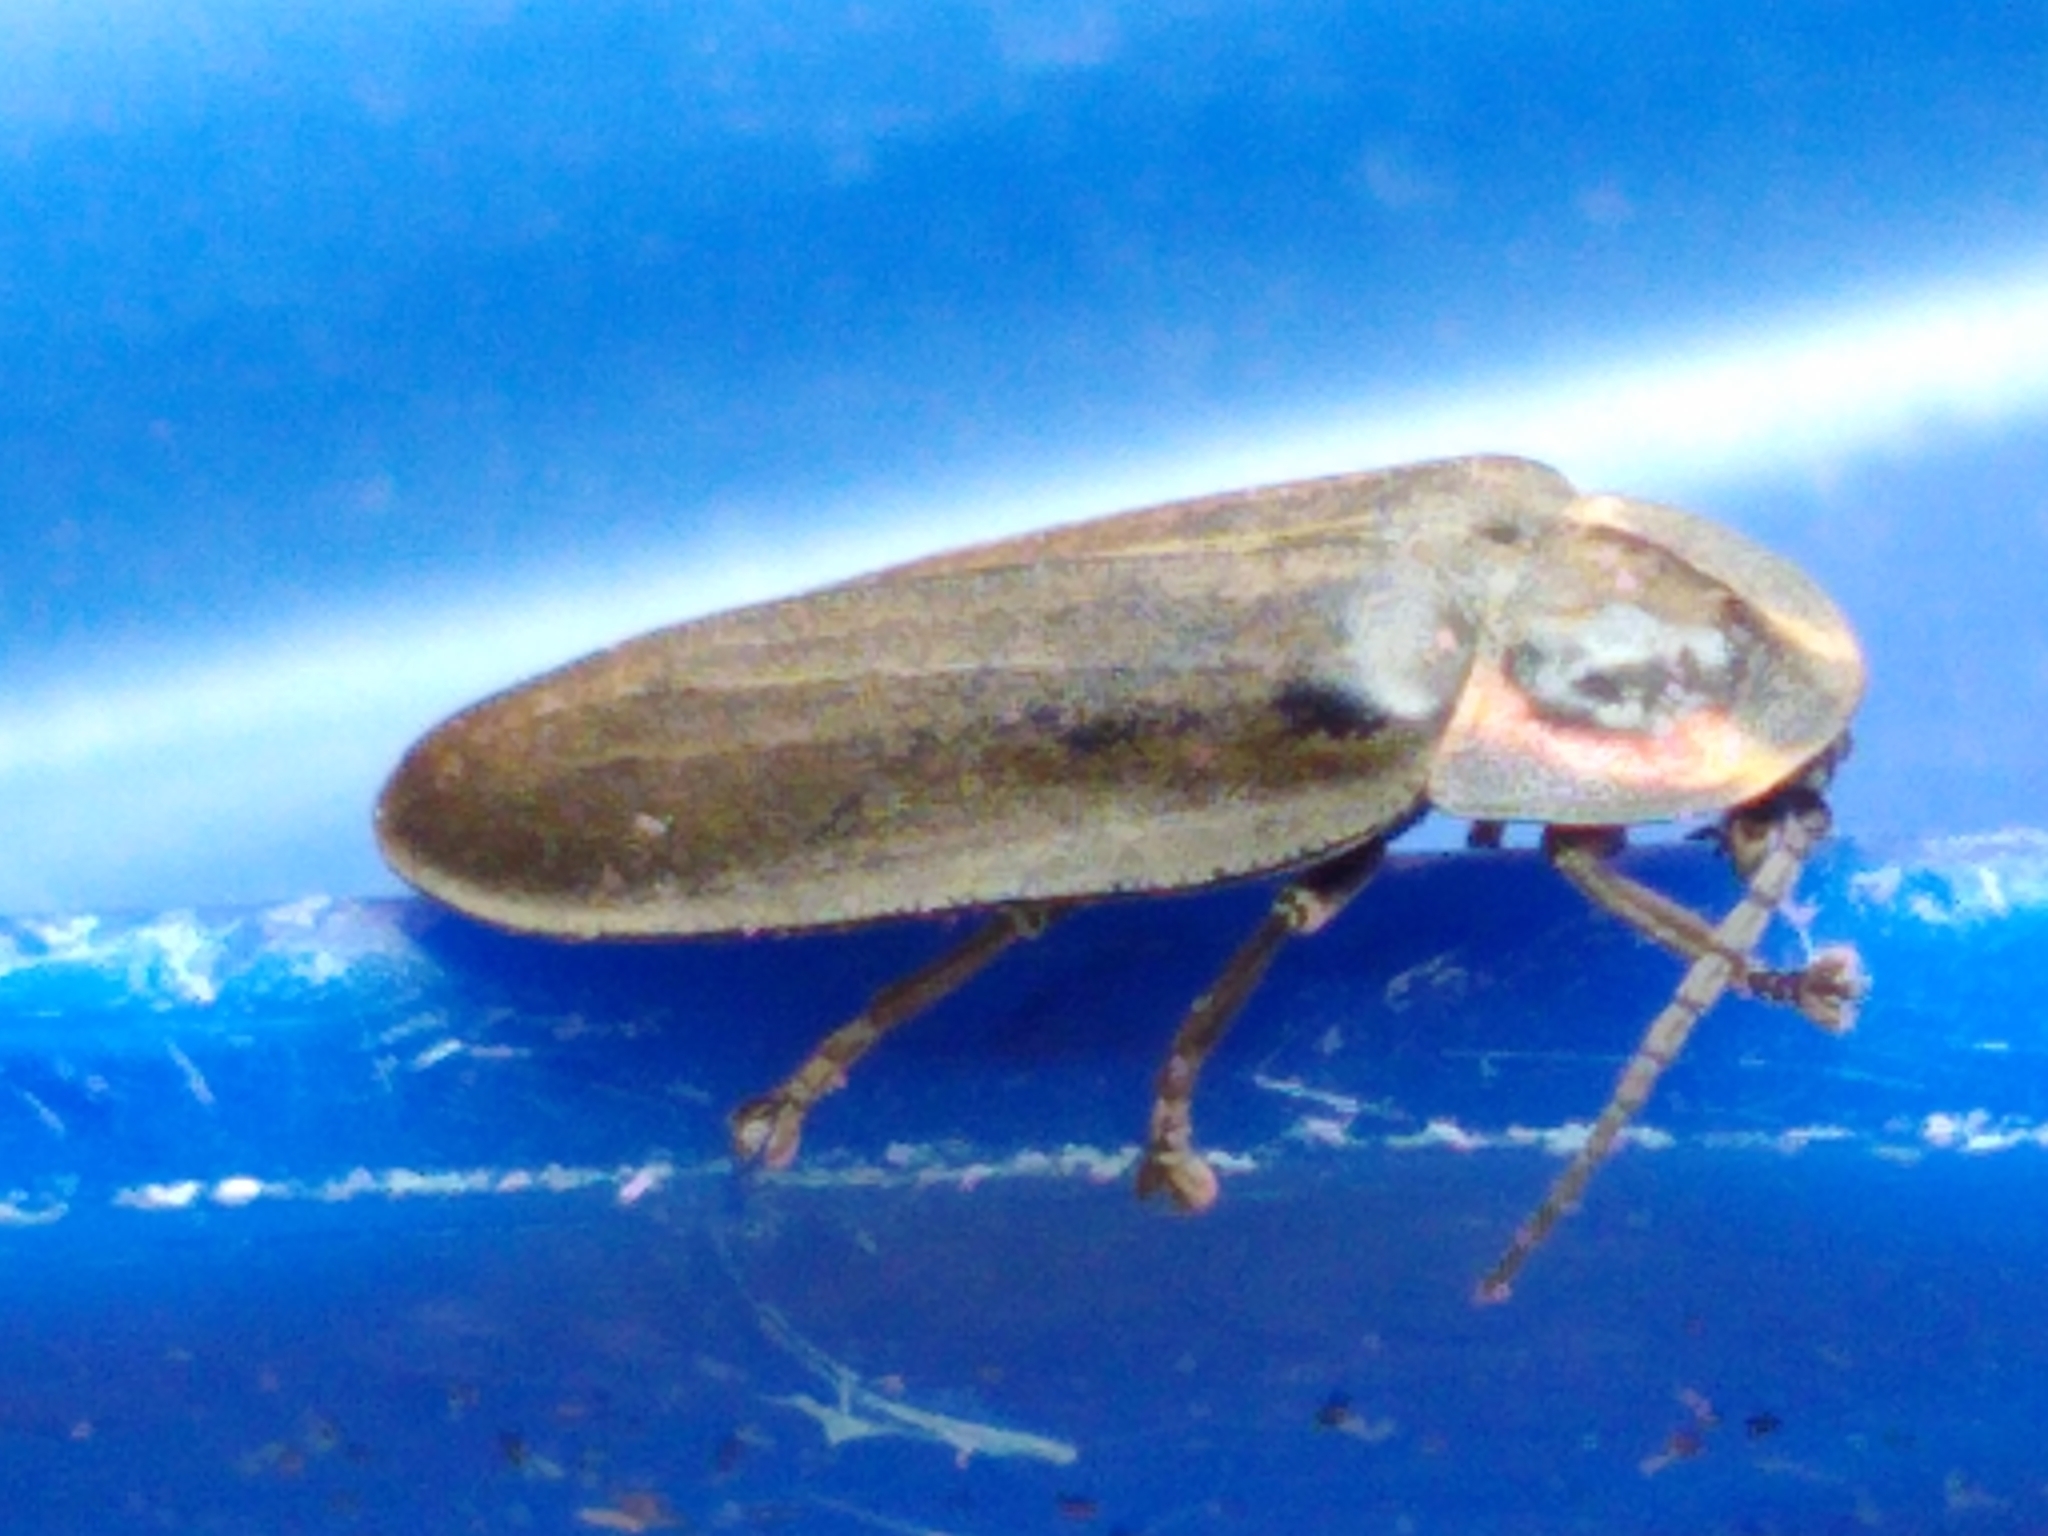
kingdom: Animalia
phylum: Arthropoda
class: Insecta
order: Coleoptera
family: Lampyridae
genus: Photinus
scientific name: Photinus corrusca
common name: Winter firefly
